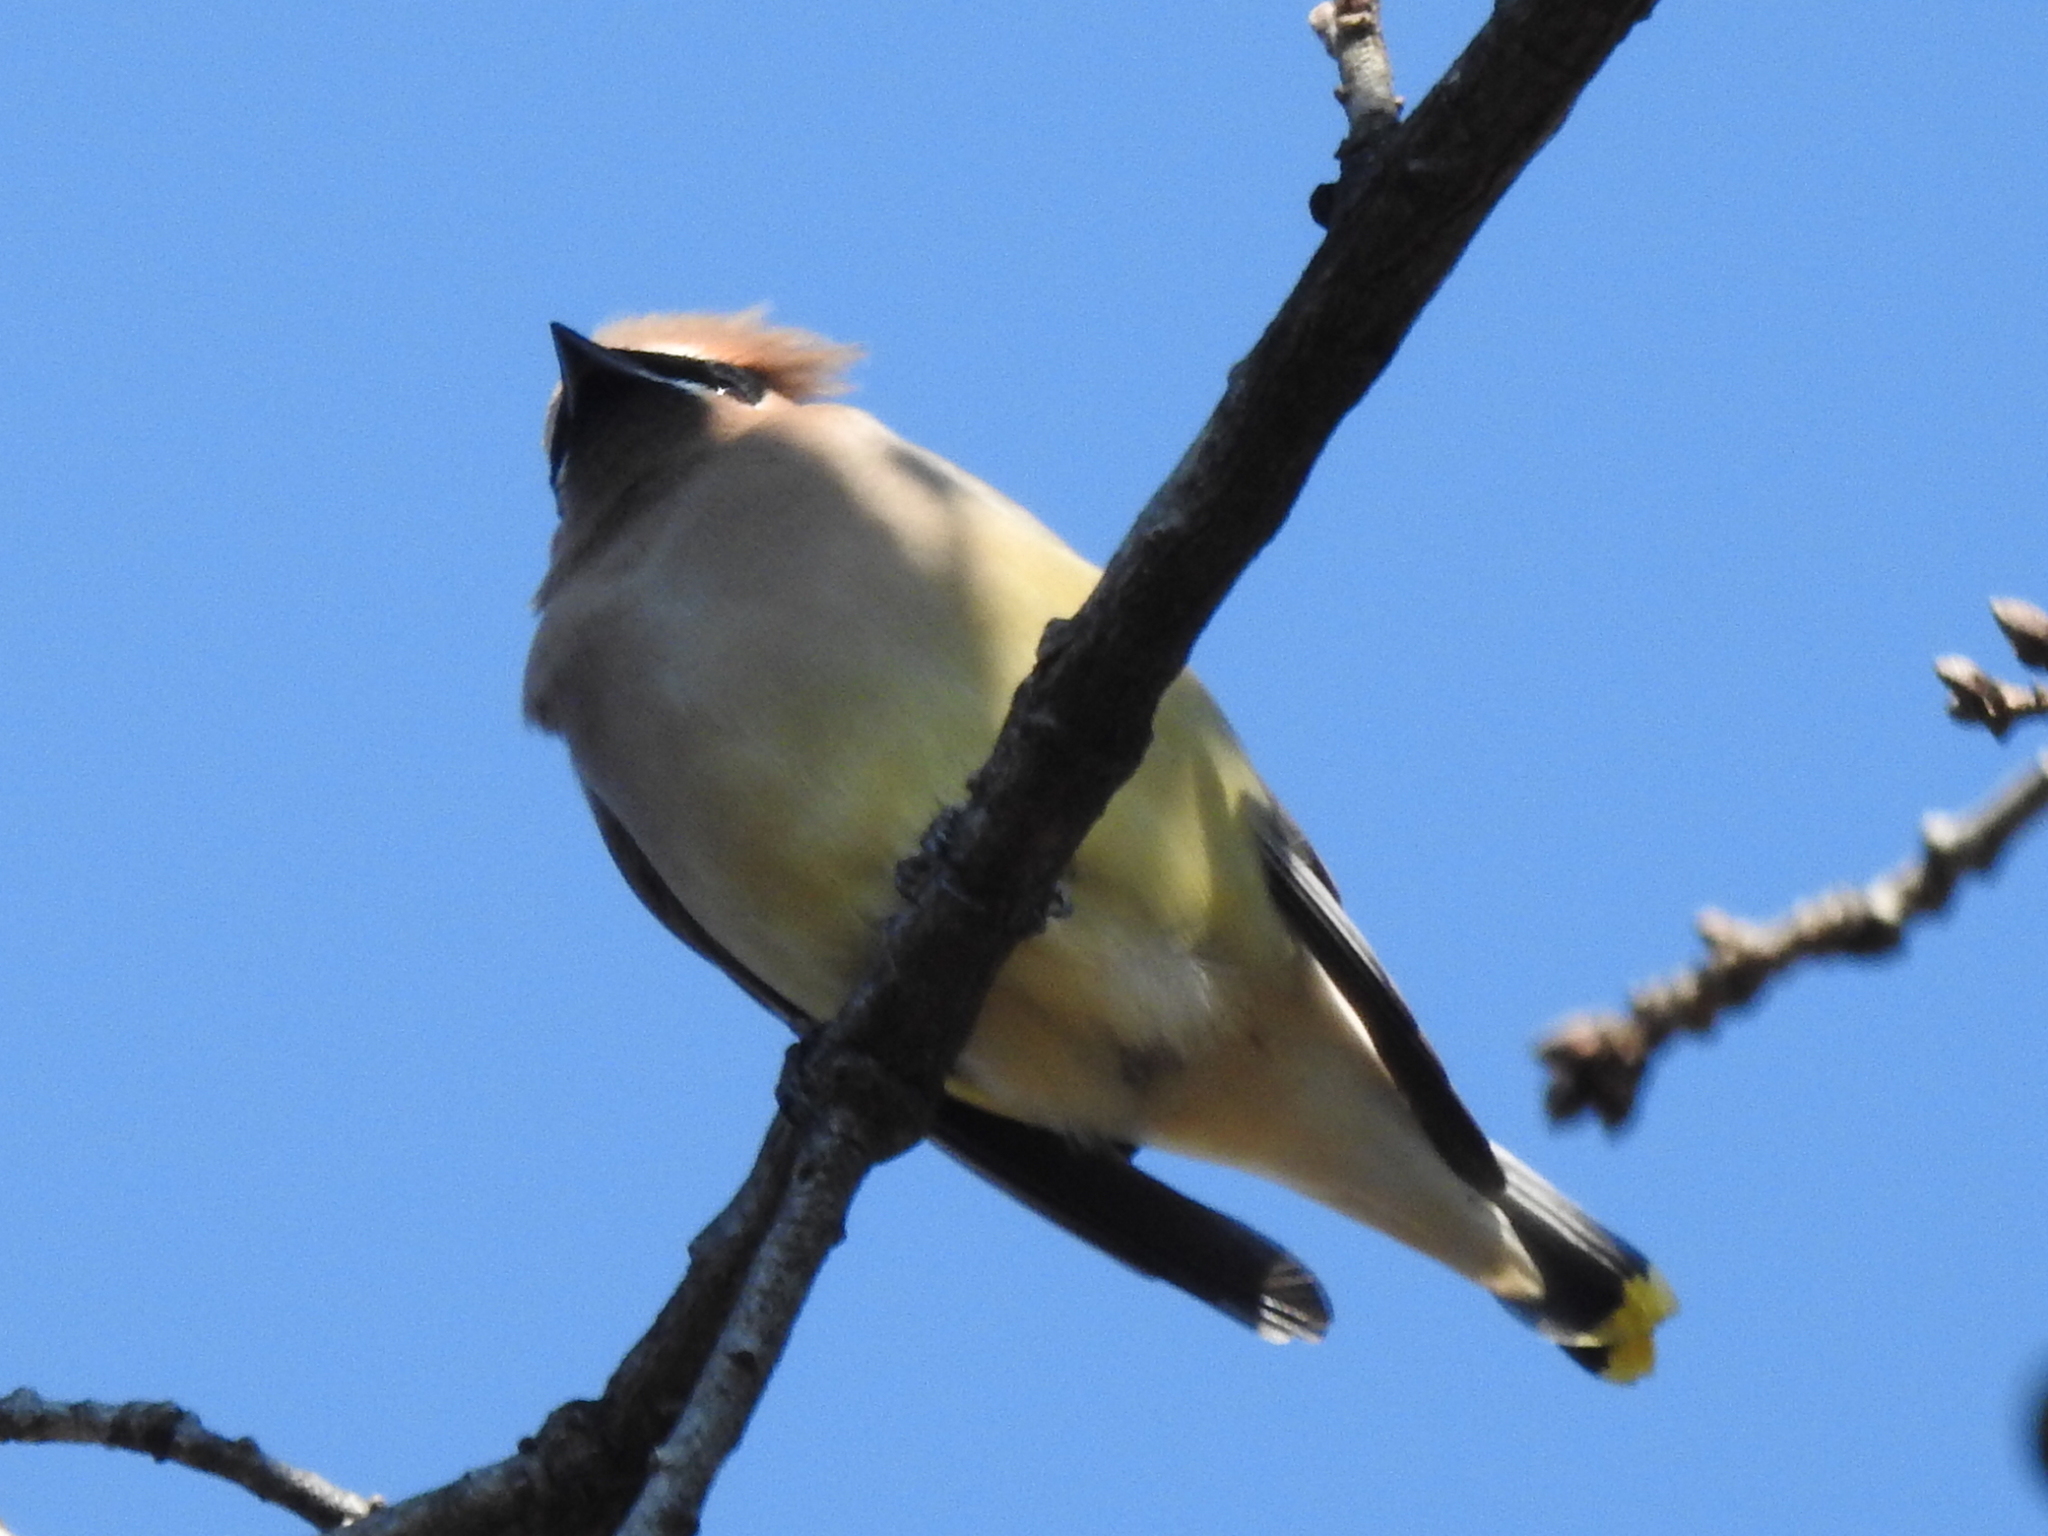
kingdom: Animalia
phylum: Chordata
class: Aves
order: Passeriformes
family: Bombycillidae
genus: Bombycilla
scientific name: Bombycilla cedrorum
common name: Cedar waxwing
